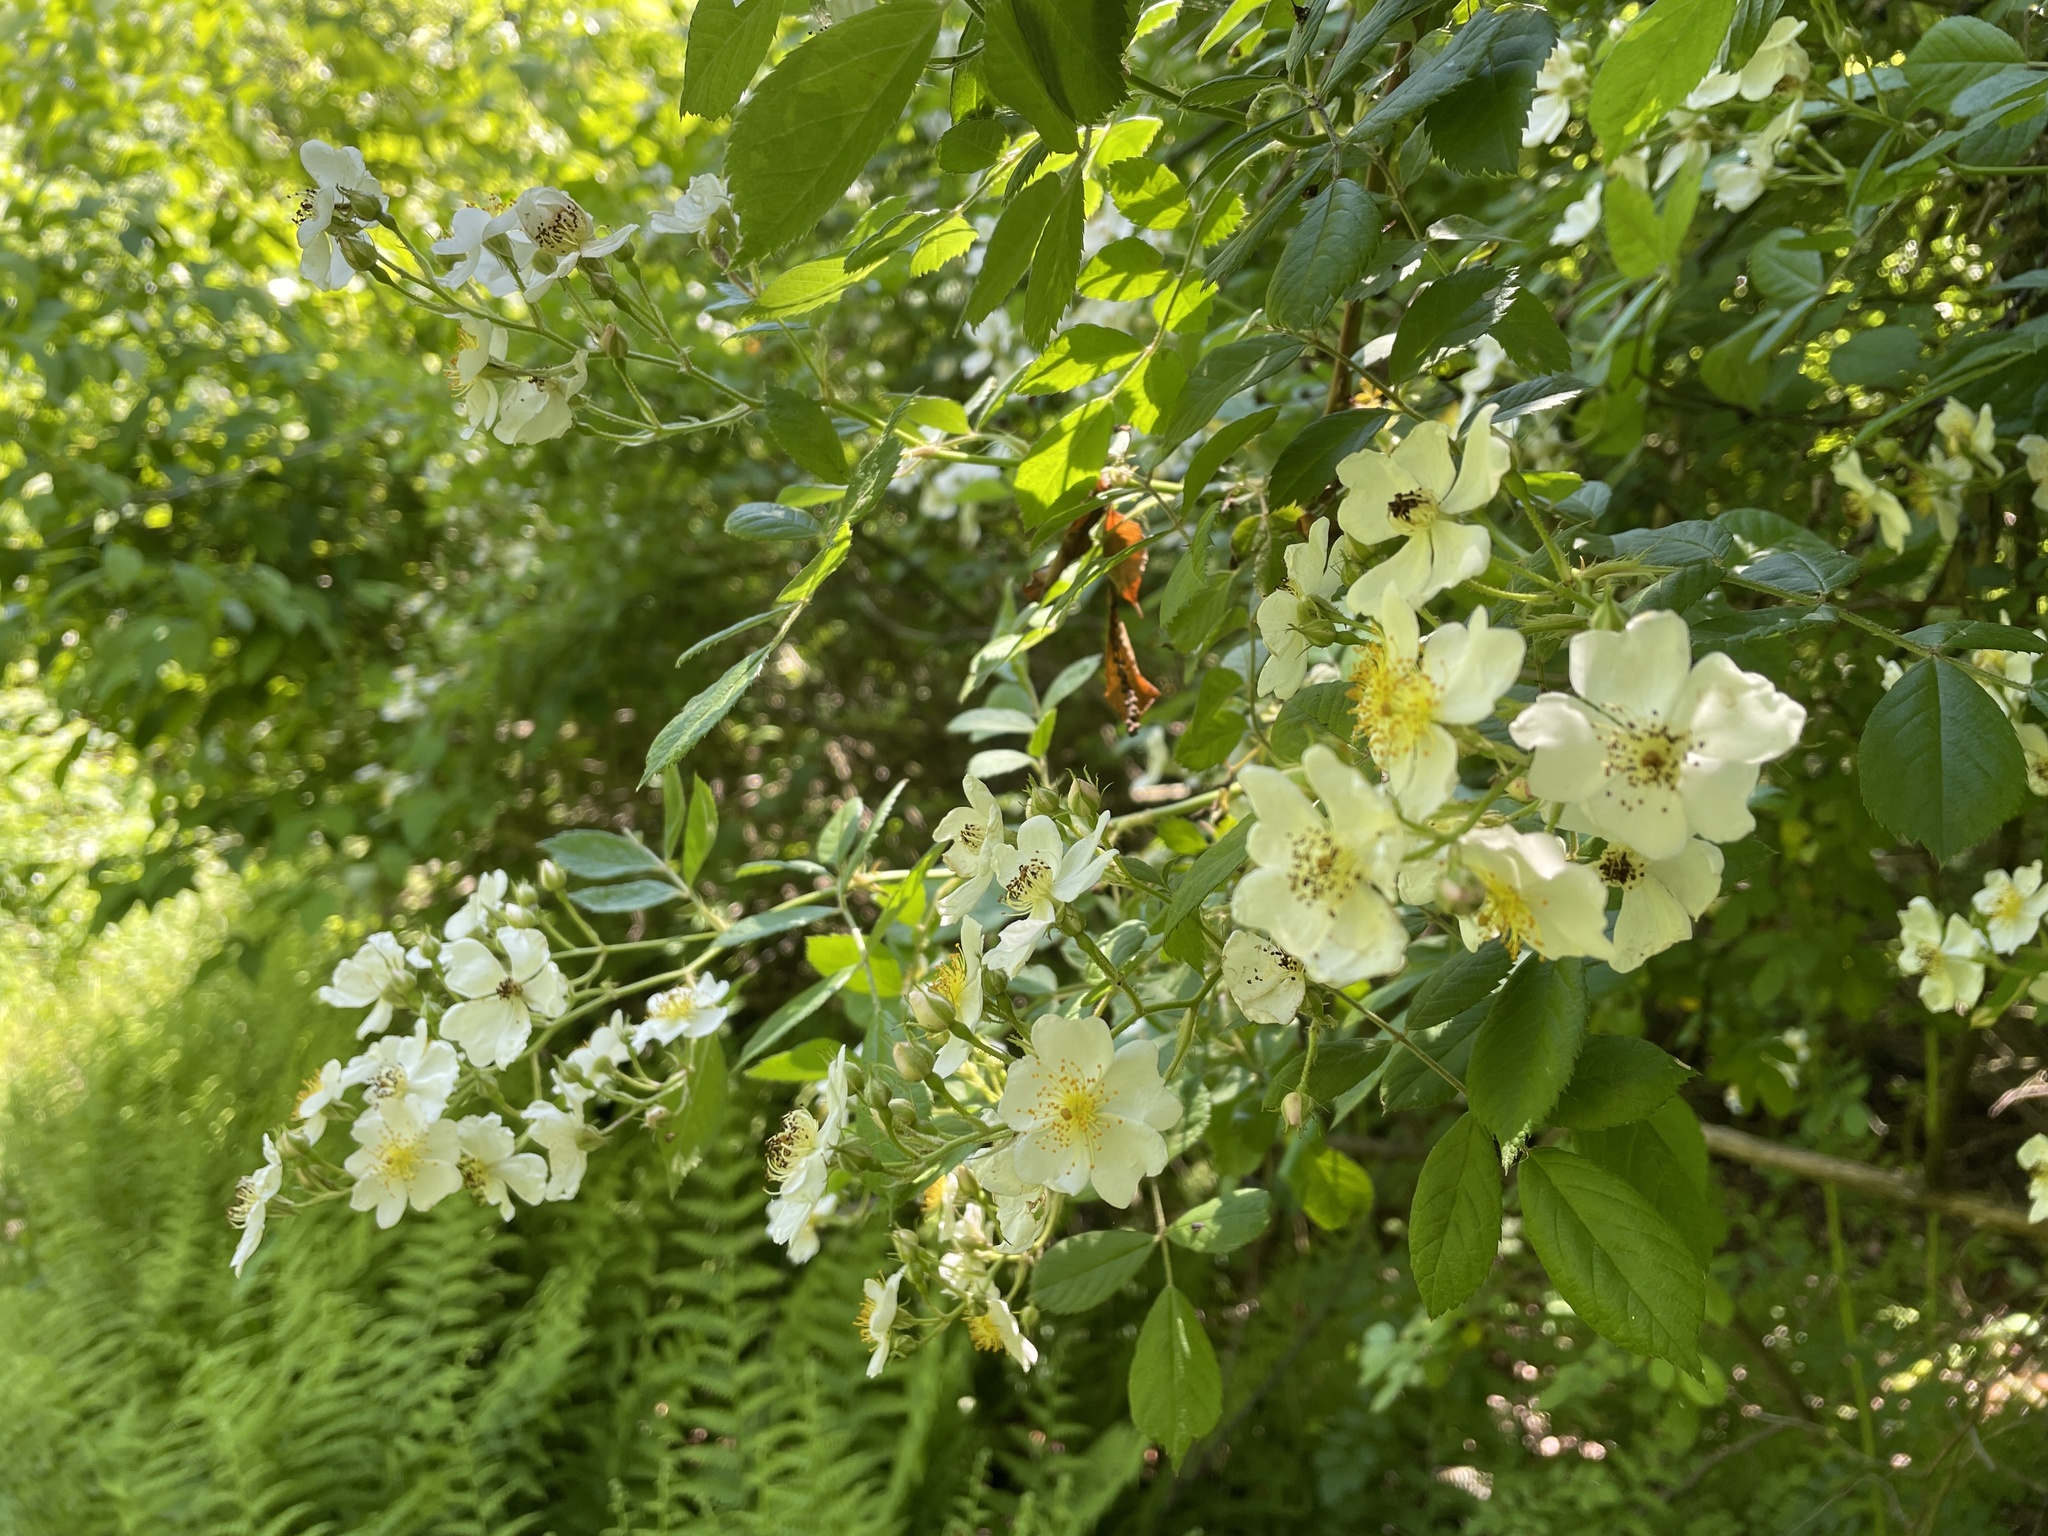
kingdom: Plantae
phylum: Tracheophyta
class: Magnoliopsida
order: Rosales
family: Rosaceae
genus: Rosa
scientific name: Rosa multiflora
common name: Multiflora rose
